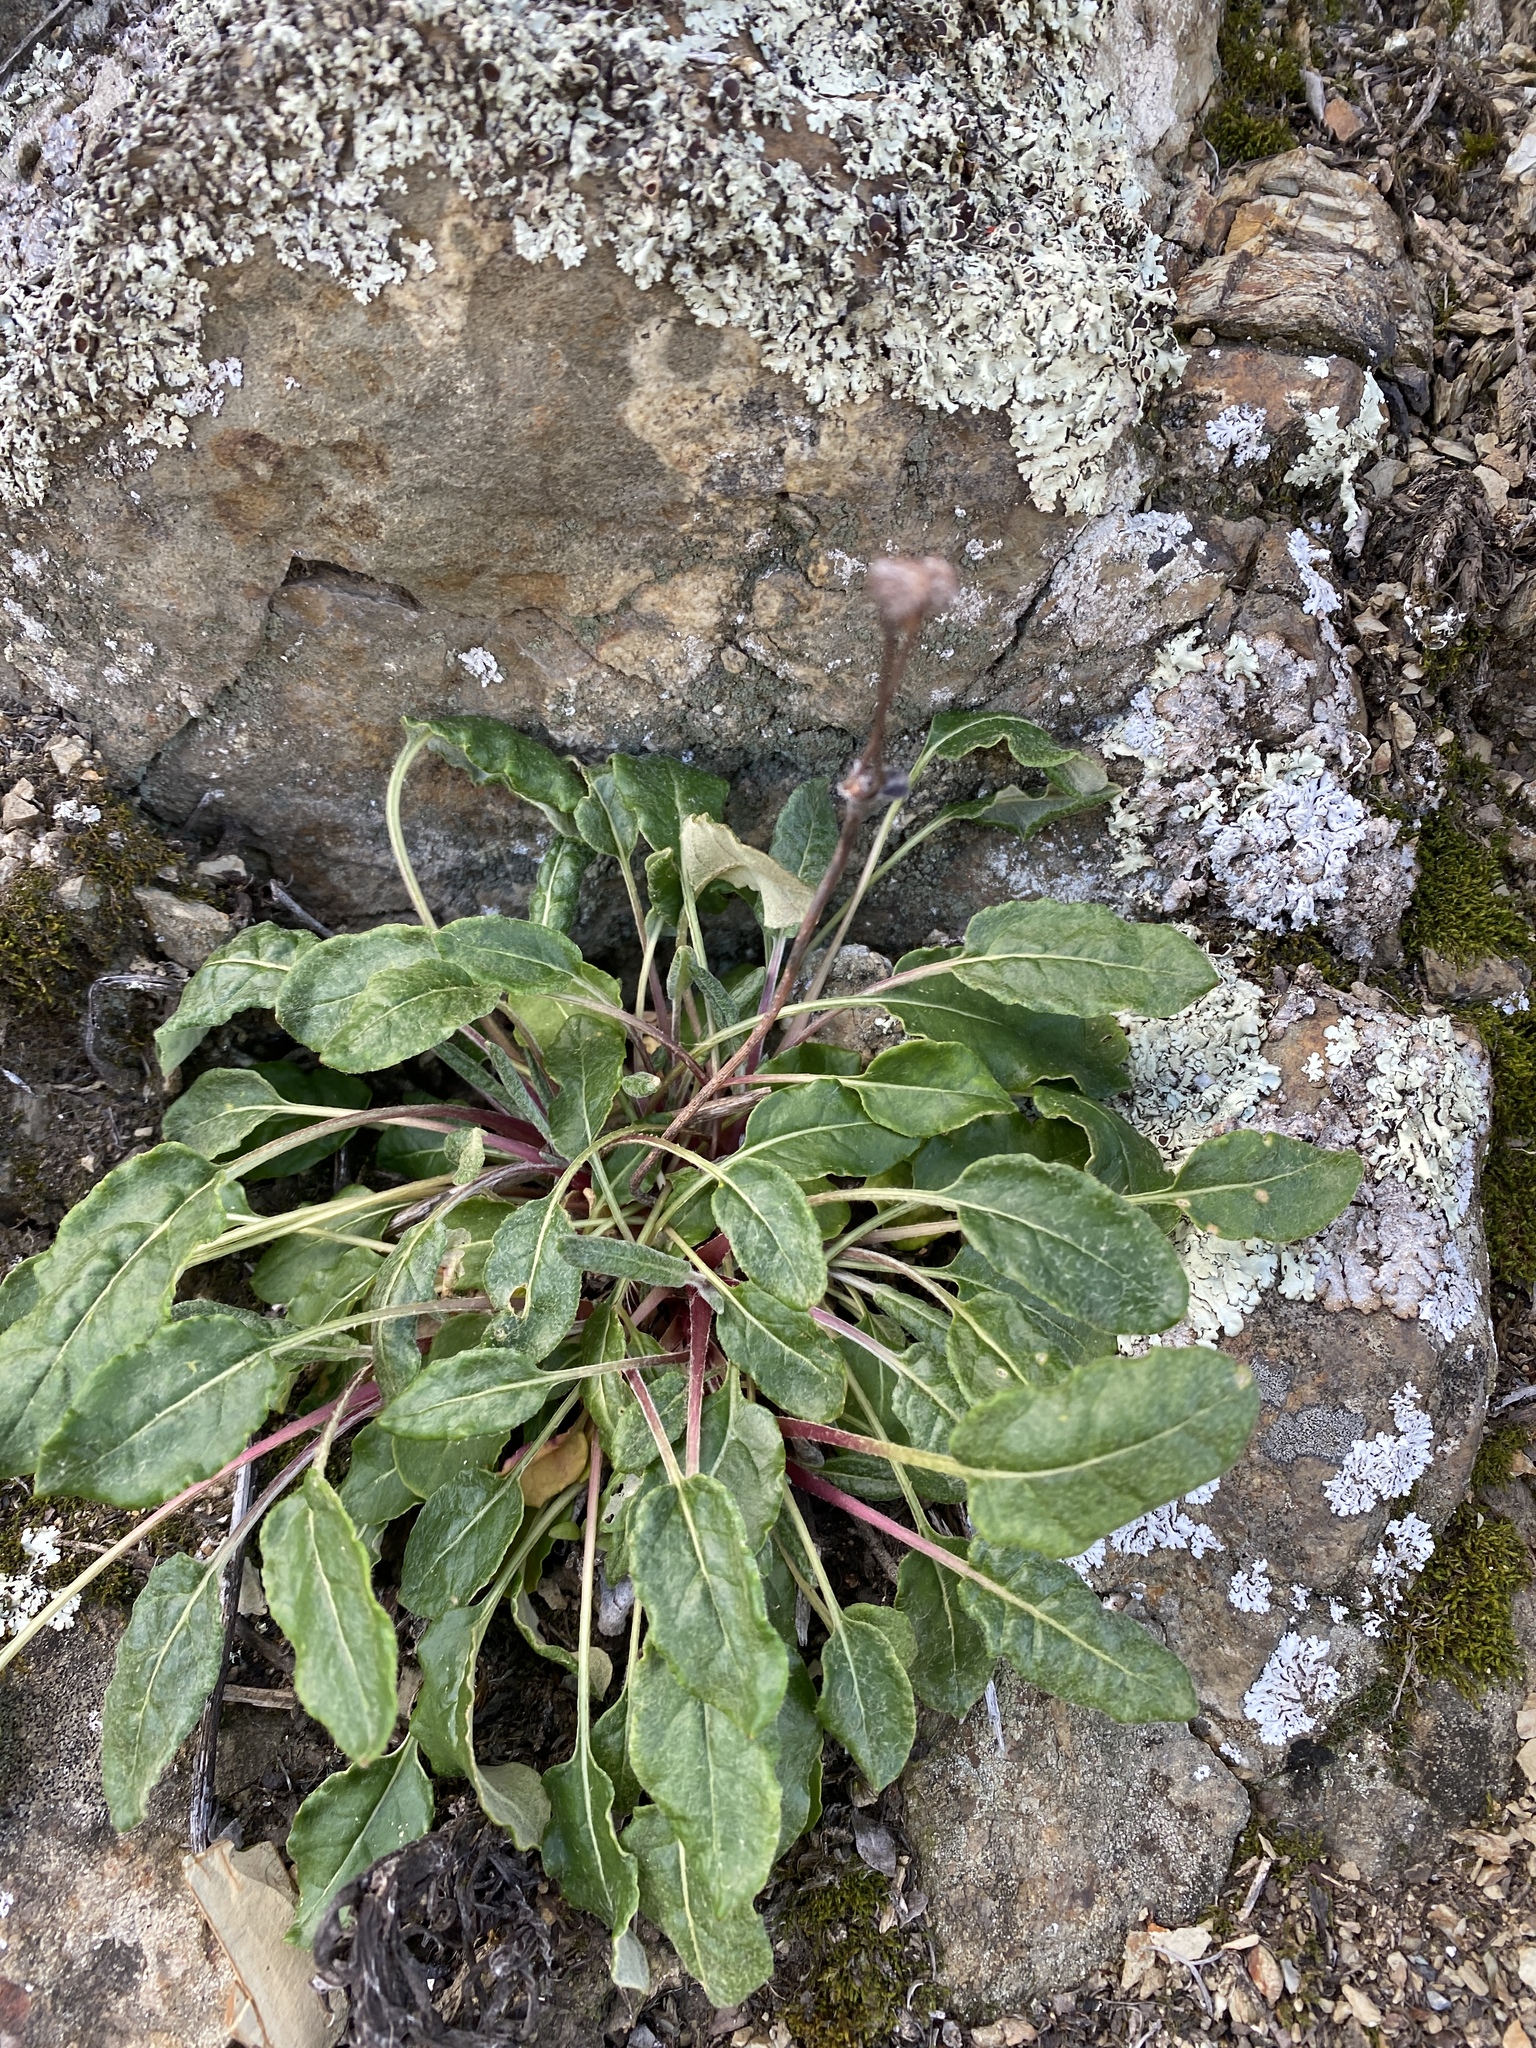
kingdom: Plantae
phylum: Tracheophyta
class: Magnoliopsida
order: Caryophyllales
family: Polygonaceae
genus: Eriogonum
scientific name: Eriogonum latifolium
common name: Seaside wild buckwheat
